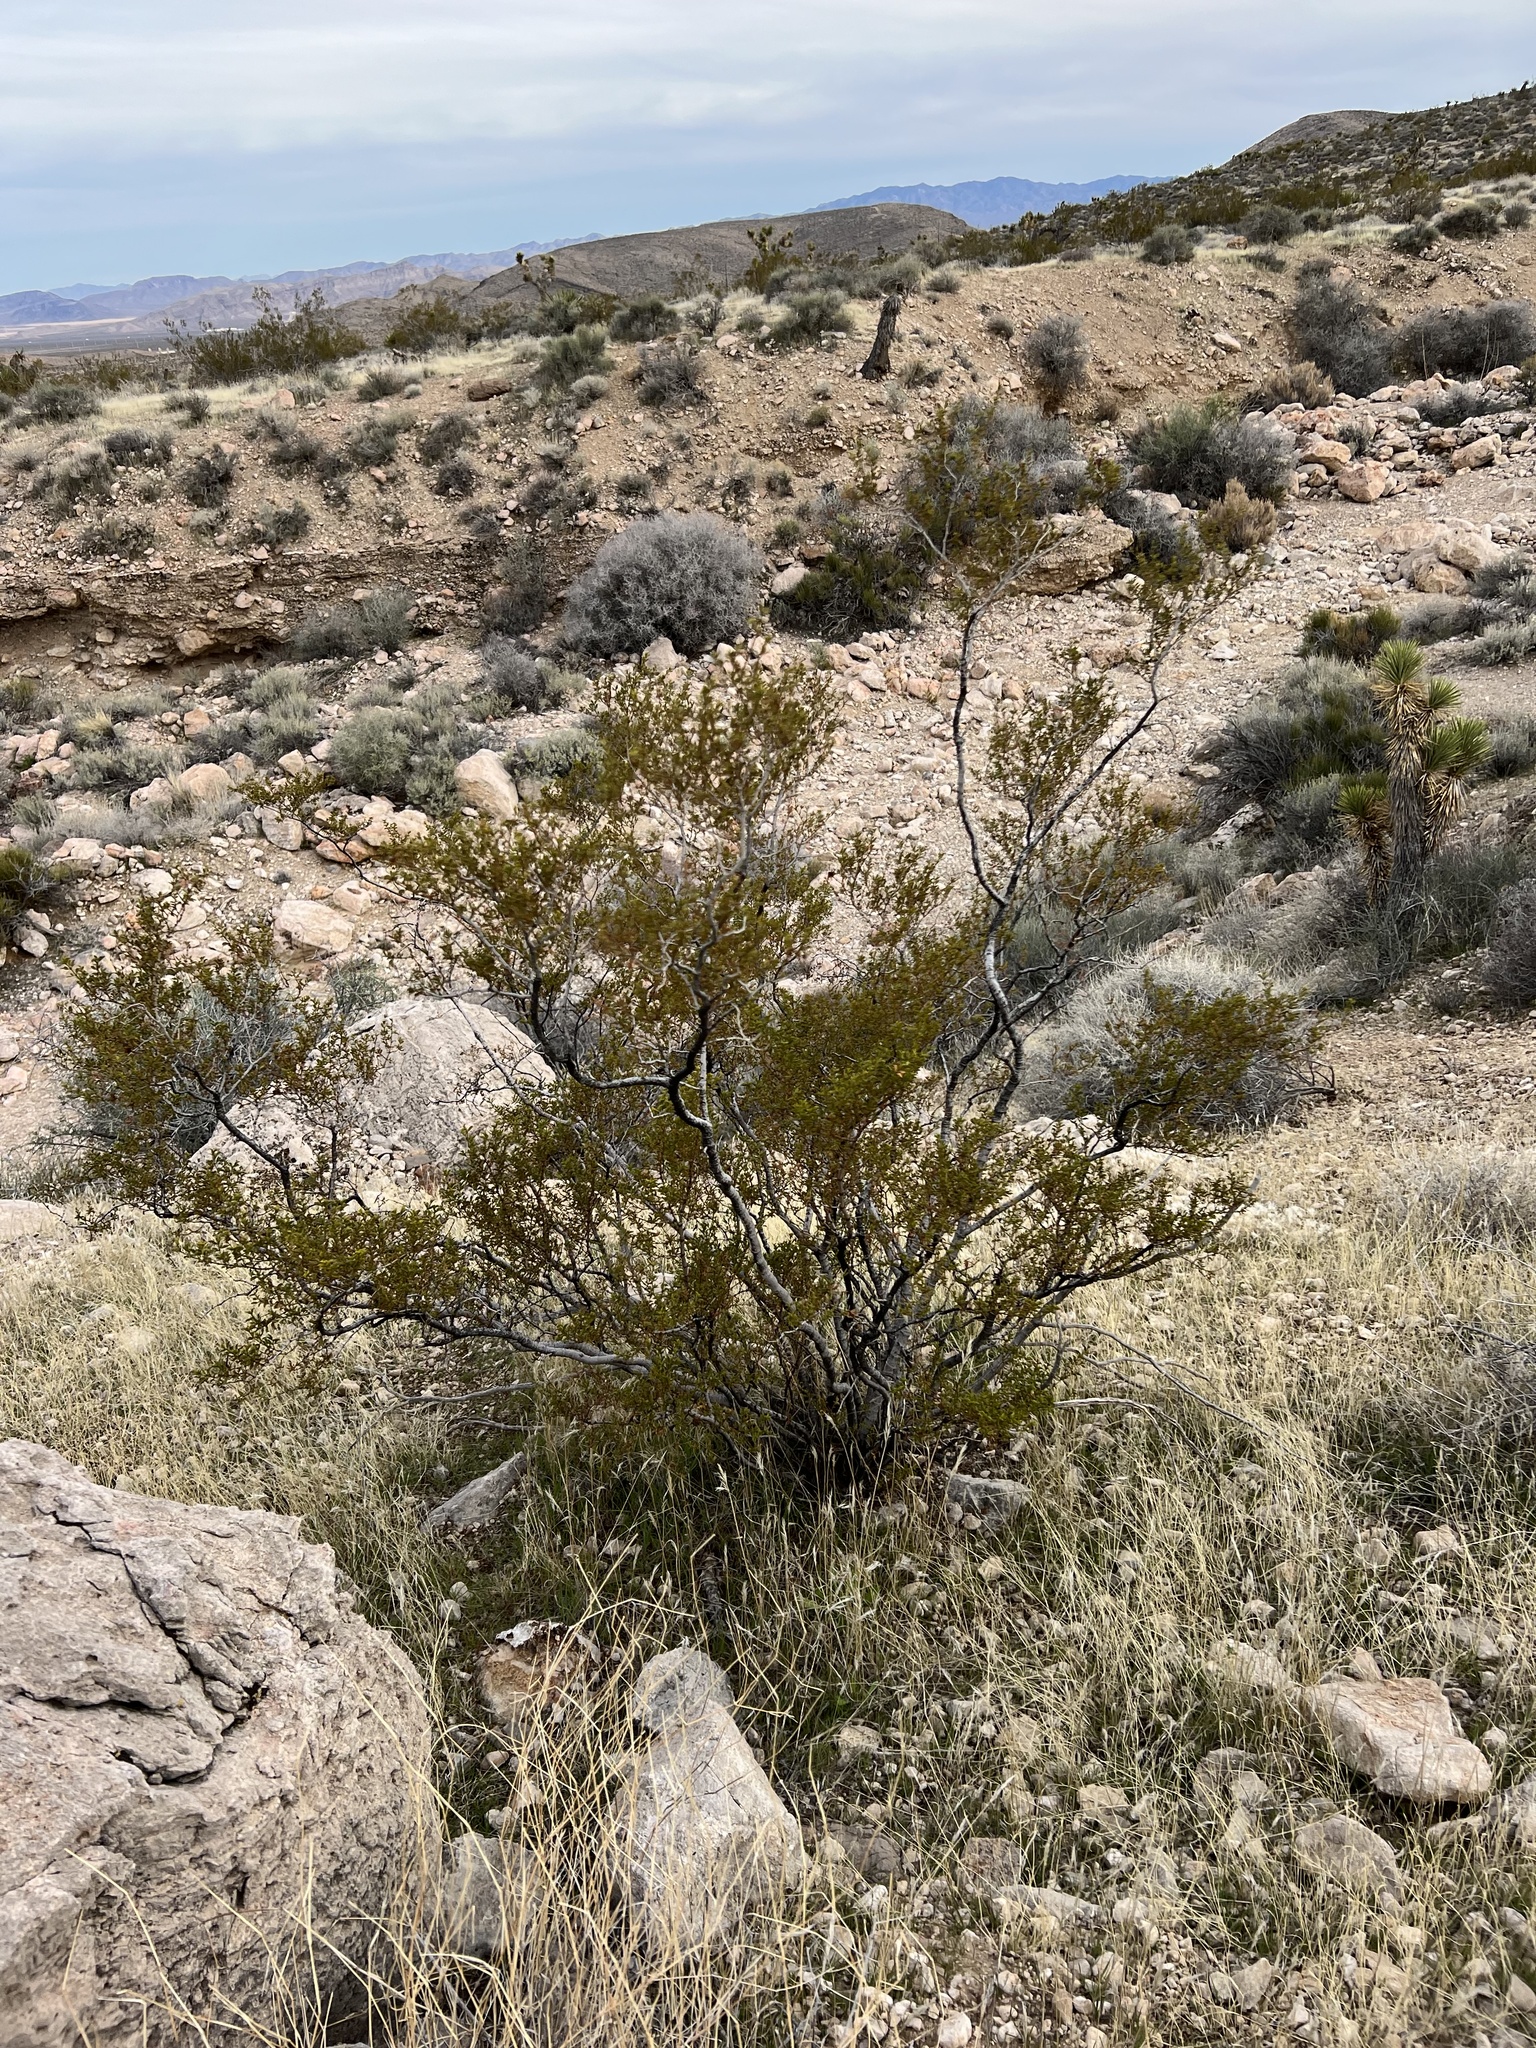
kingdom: Plantae
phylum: Tracheophyta
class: Magnoliopsida
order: Zygophyllales
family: Zygophyllaceae
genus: Larrea
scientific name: Larrea tridentata
